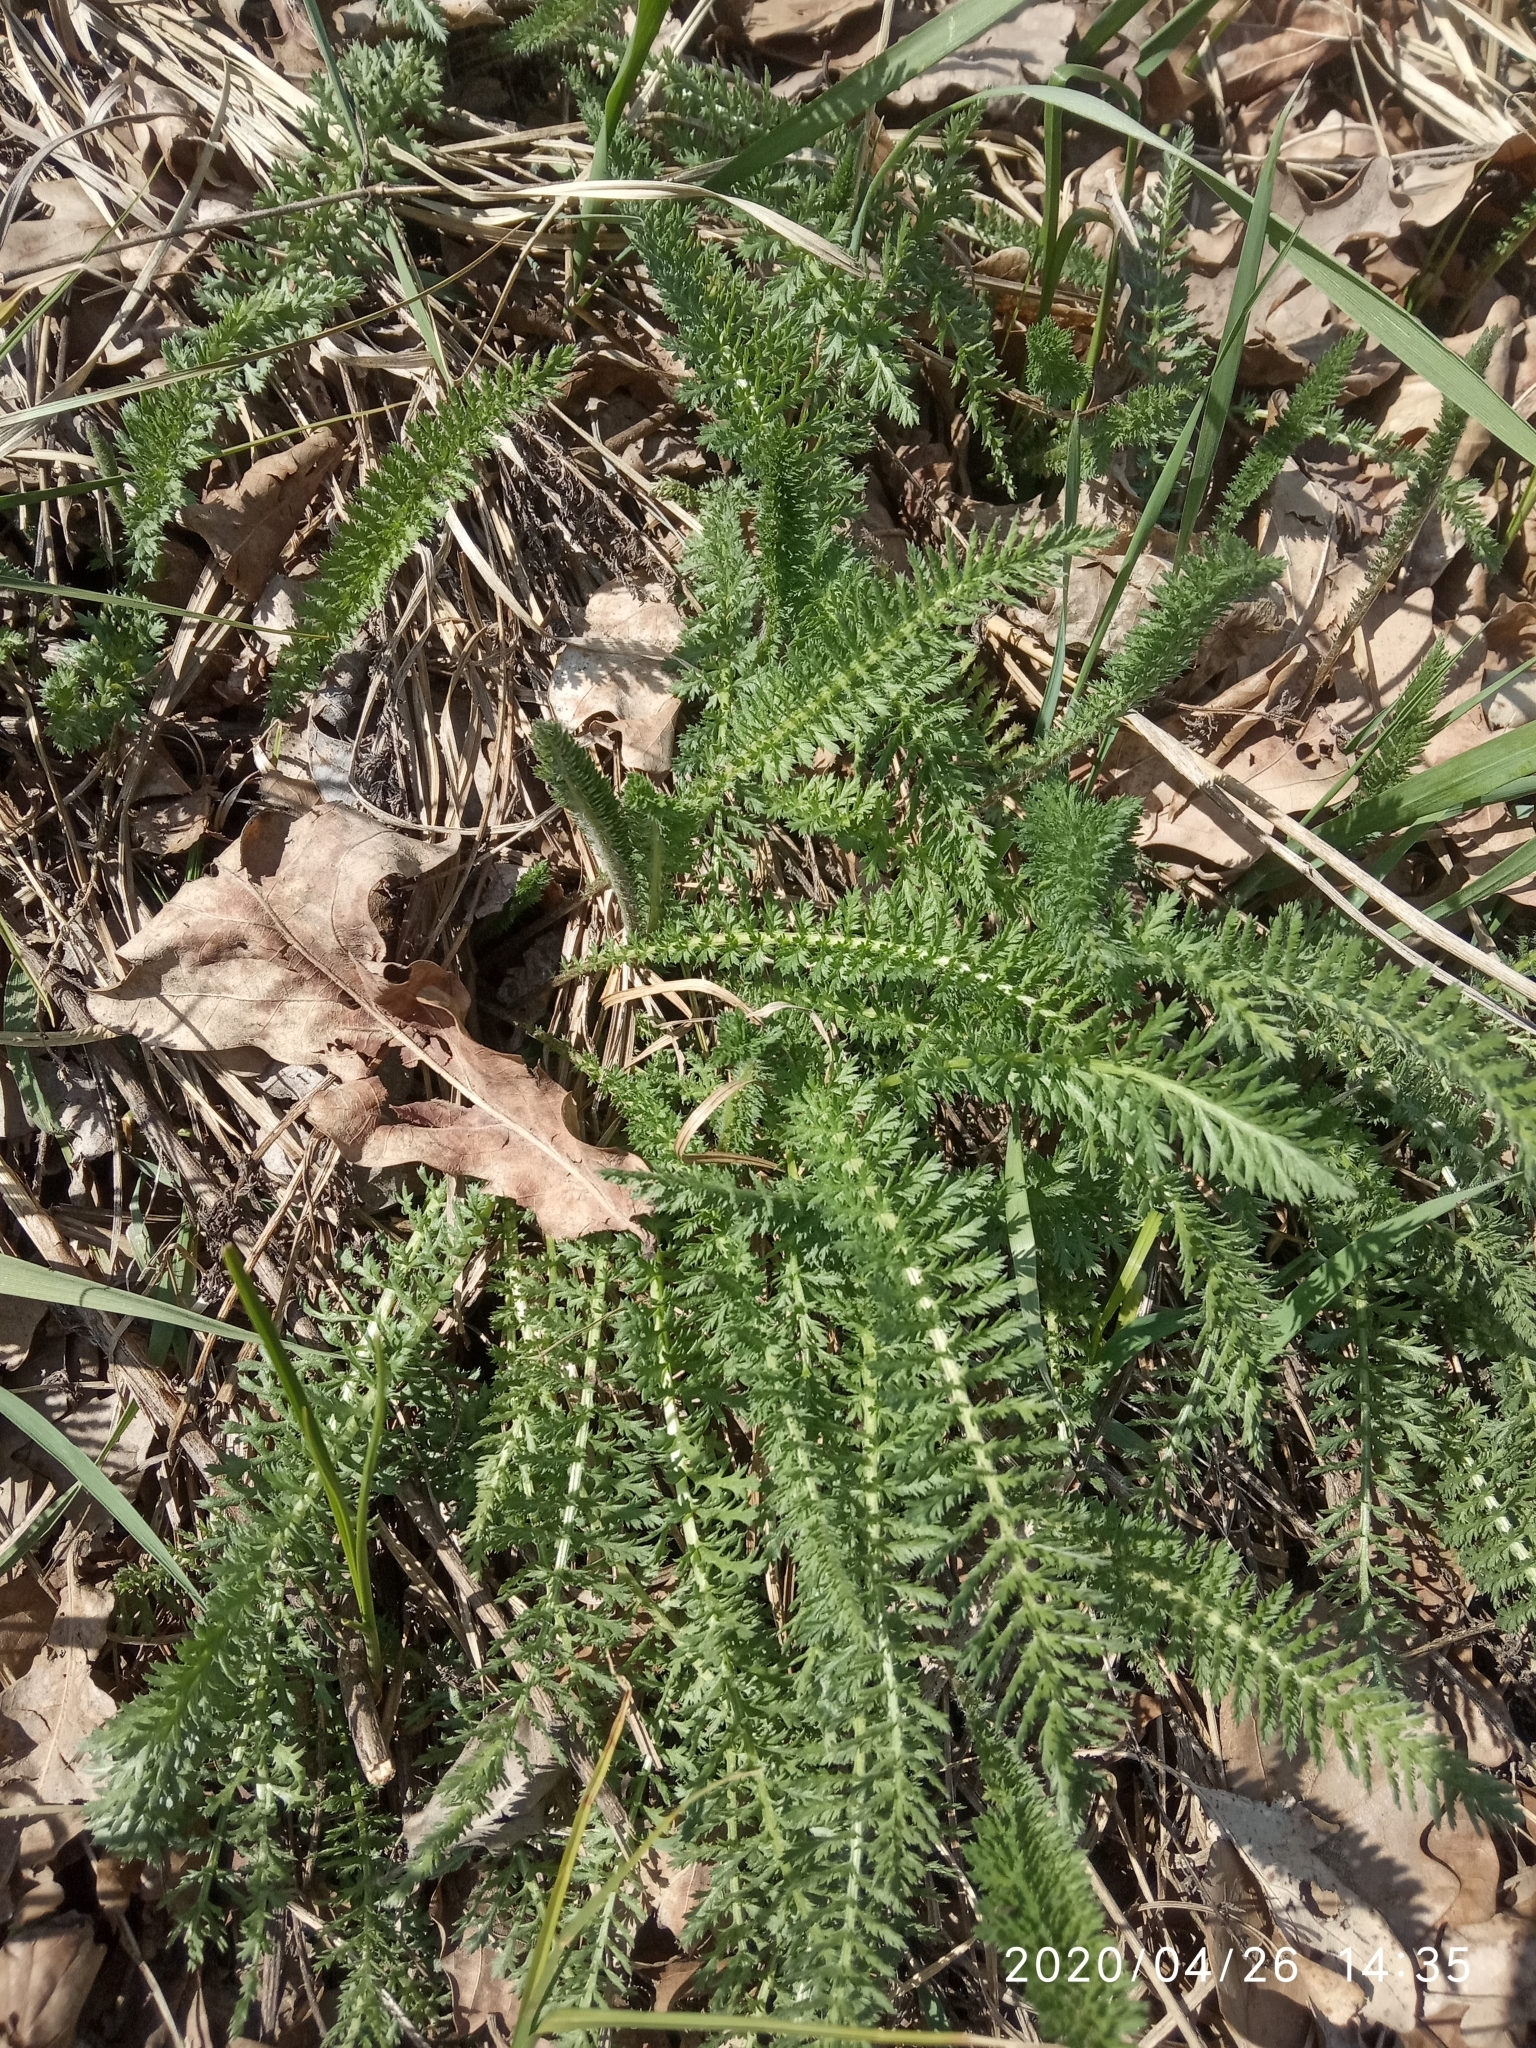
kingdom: Plantae
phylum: Tracheophyta
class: Magnoliopsida
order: Asterales
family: Asteraceae
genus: Achillea
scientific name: Achillea millefolium
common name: Yarrow
